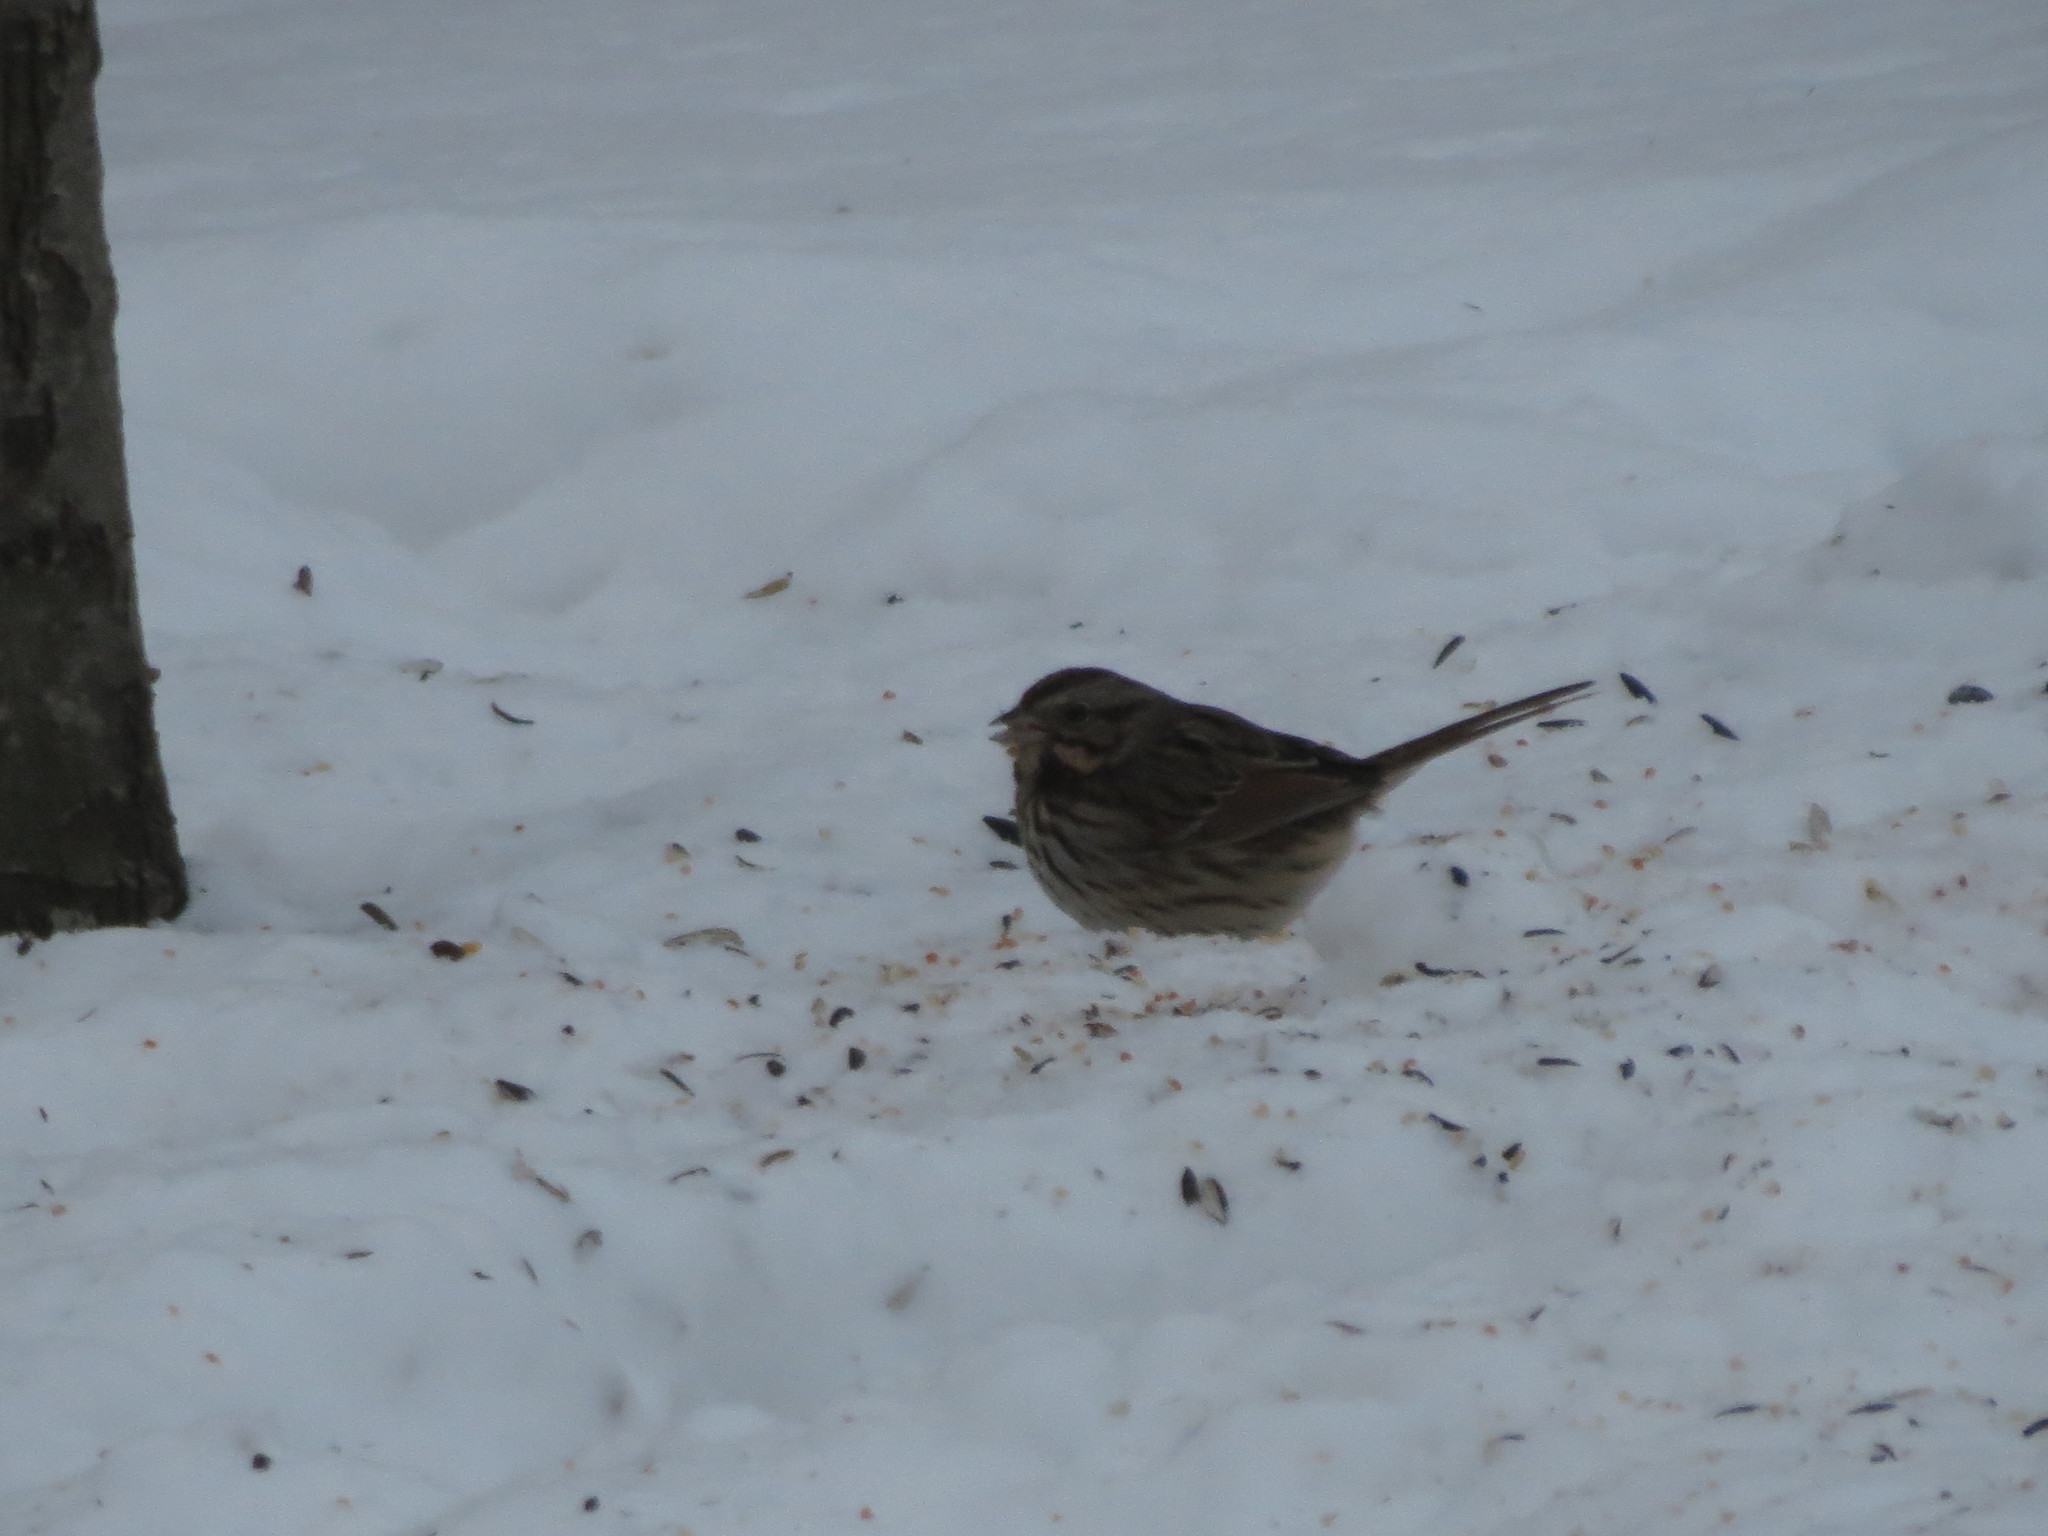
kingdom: Animalia
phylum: Chordata
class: Aves
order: Passeriformes
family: Passerellidae
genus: Melospiza
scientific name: Melospiza melodia
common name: Song sparrow
